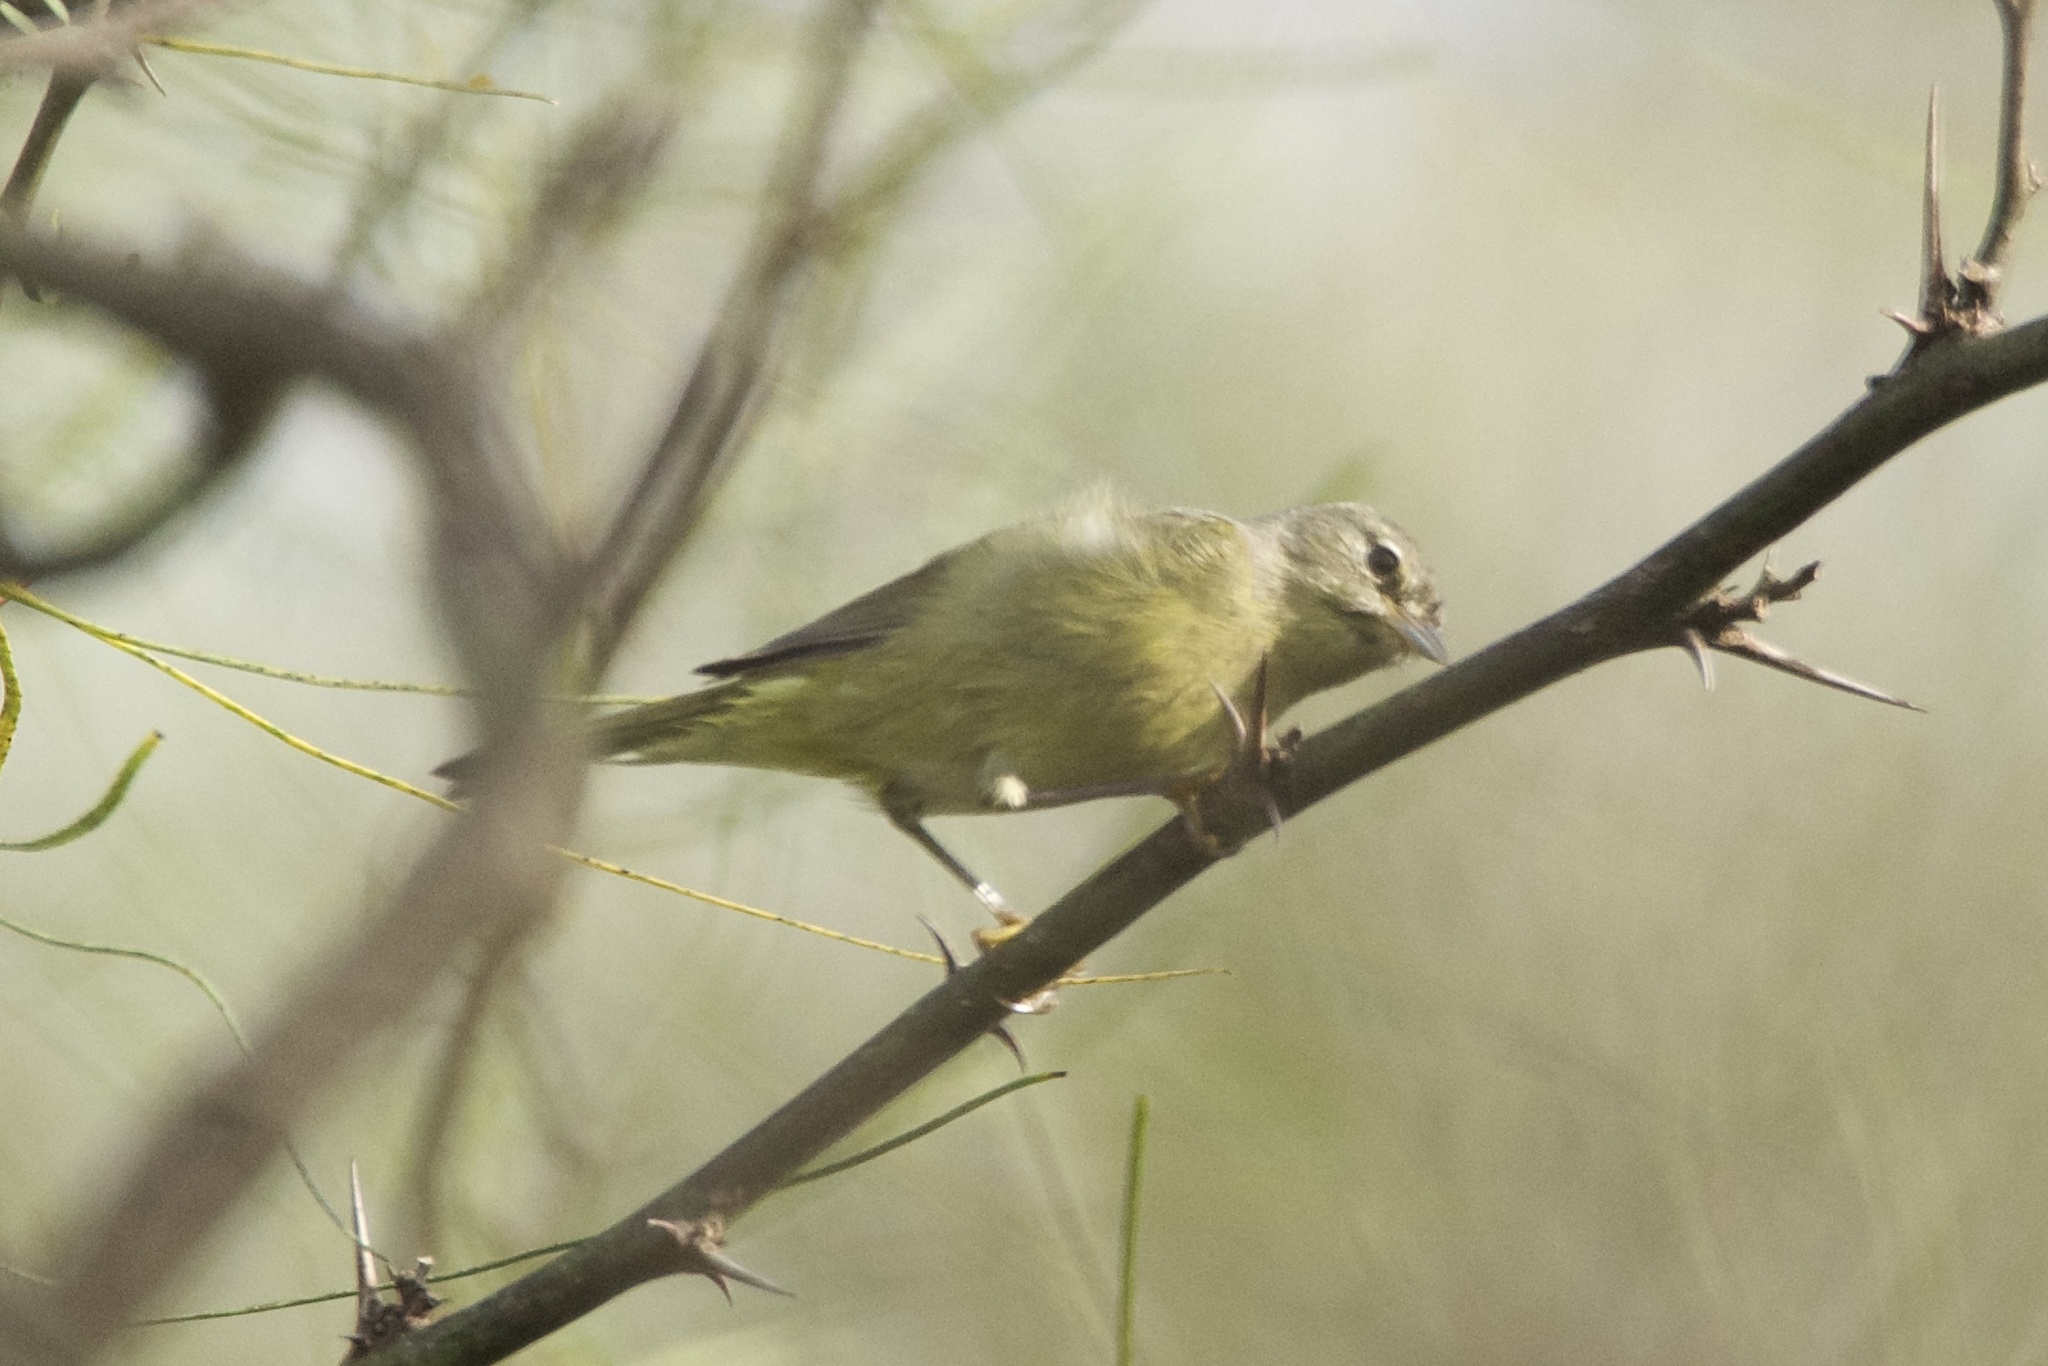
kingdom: Animalia
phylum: Chordata
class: Aves
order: Passeriformes
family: Parulidae
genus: Leiothlypis
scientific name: Leiothlypis celata
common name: Orange-crowned warbler
